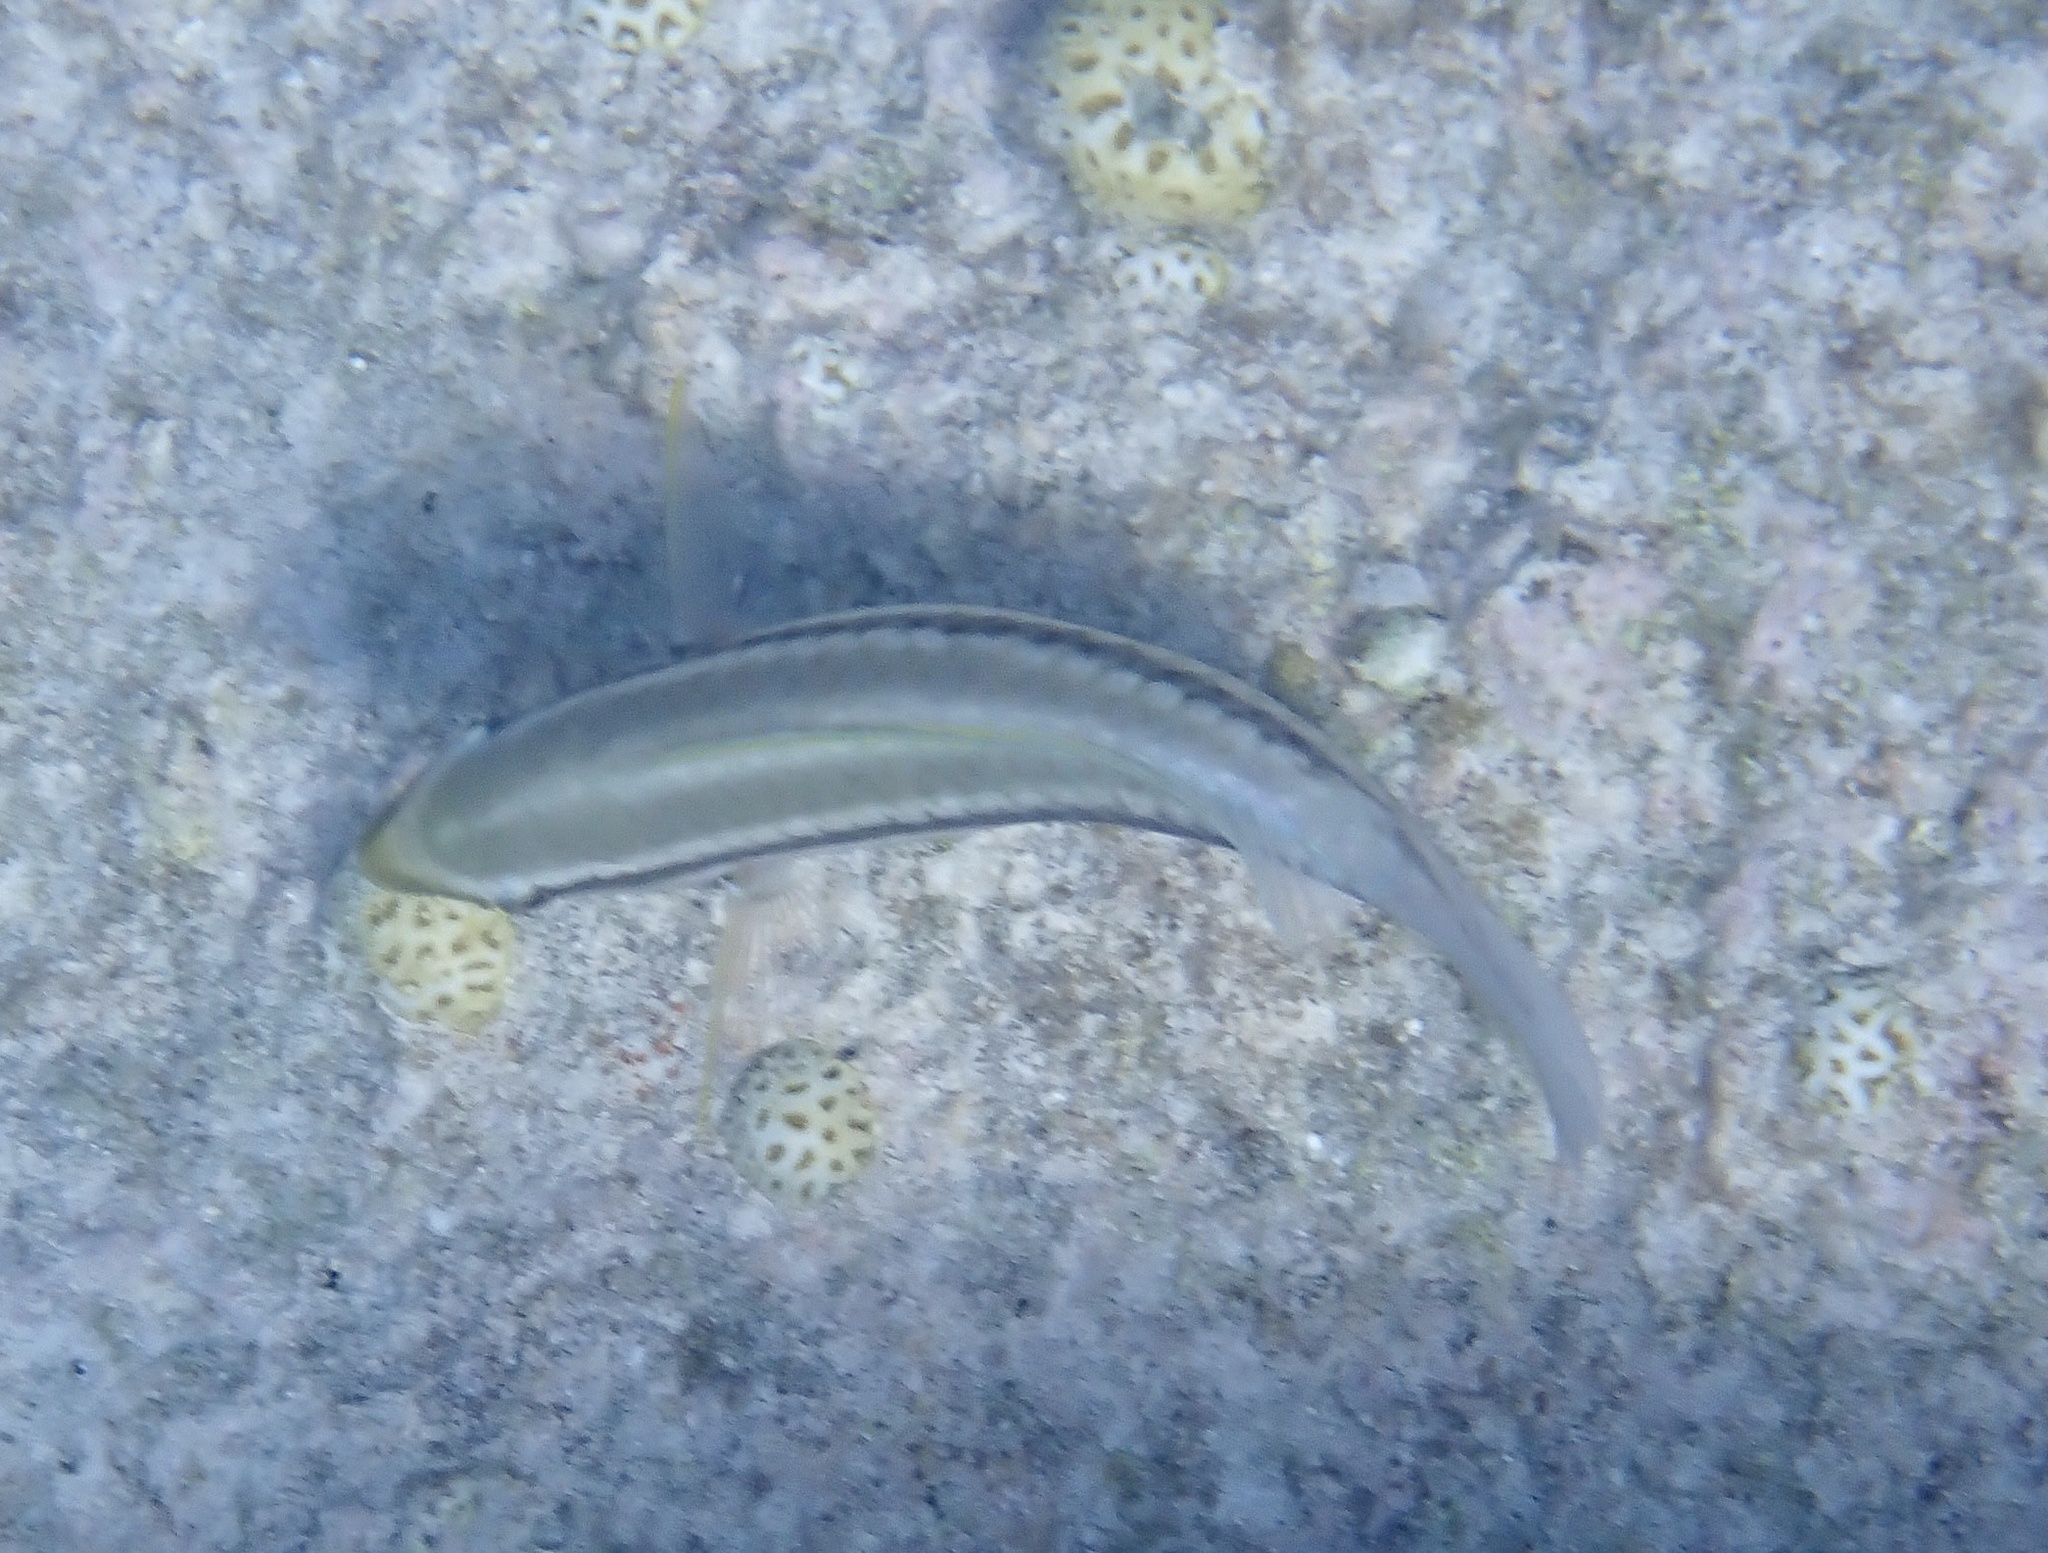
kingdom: Animalia
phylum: Chordata
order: Perciformes
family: Scaridae
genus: Scarus
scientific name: Scarus iseri
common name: Striped parrotfish
